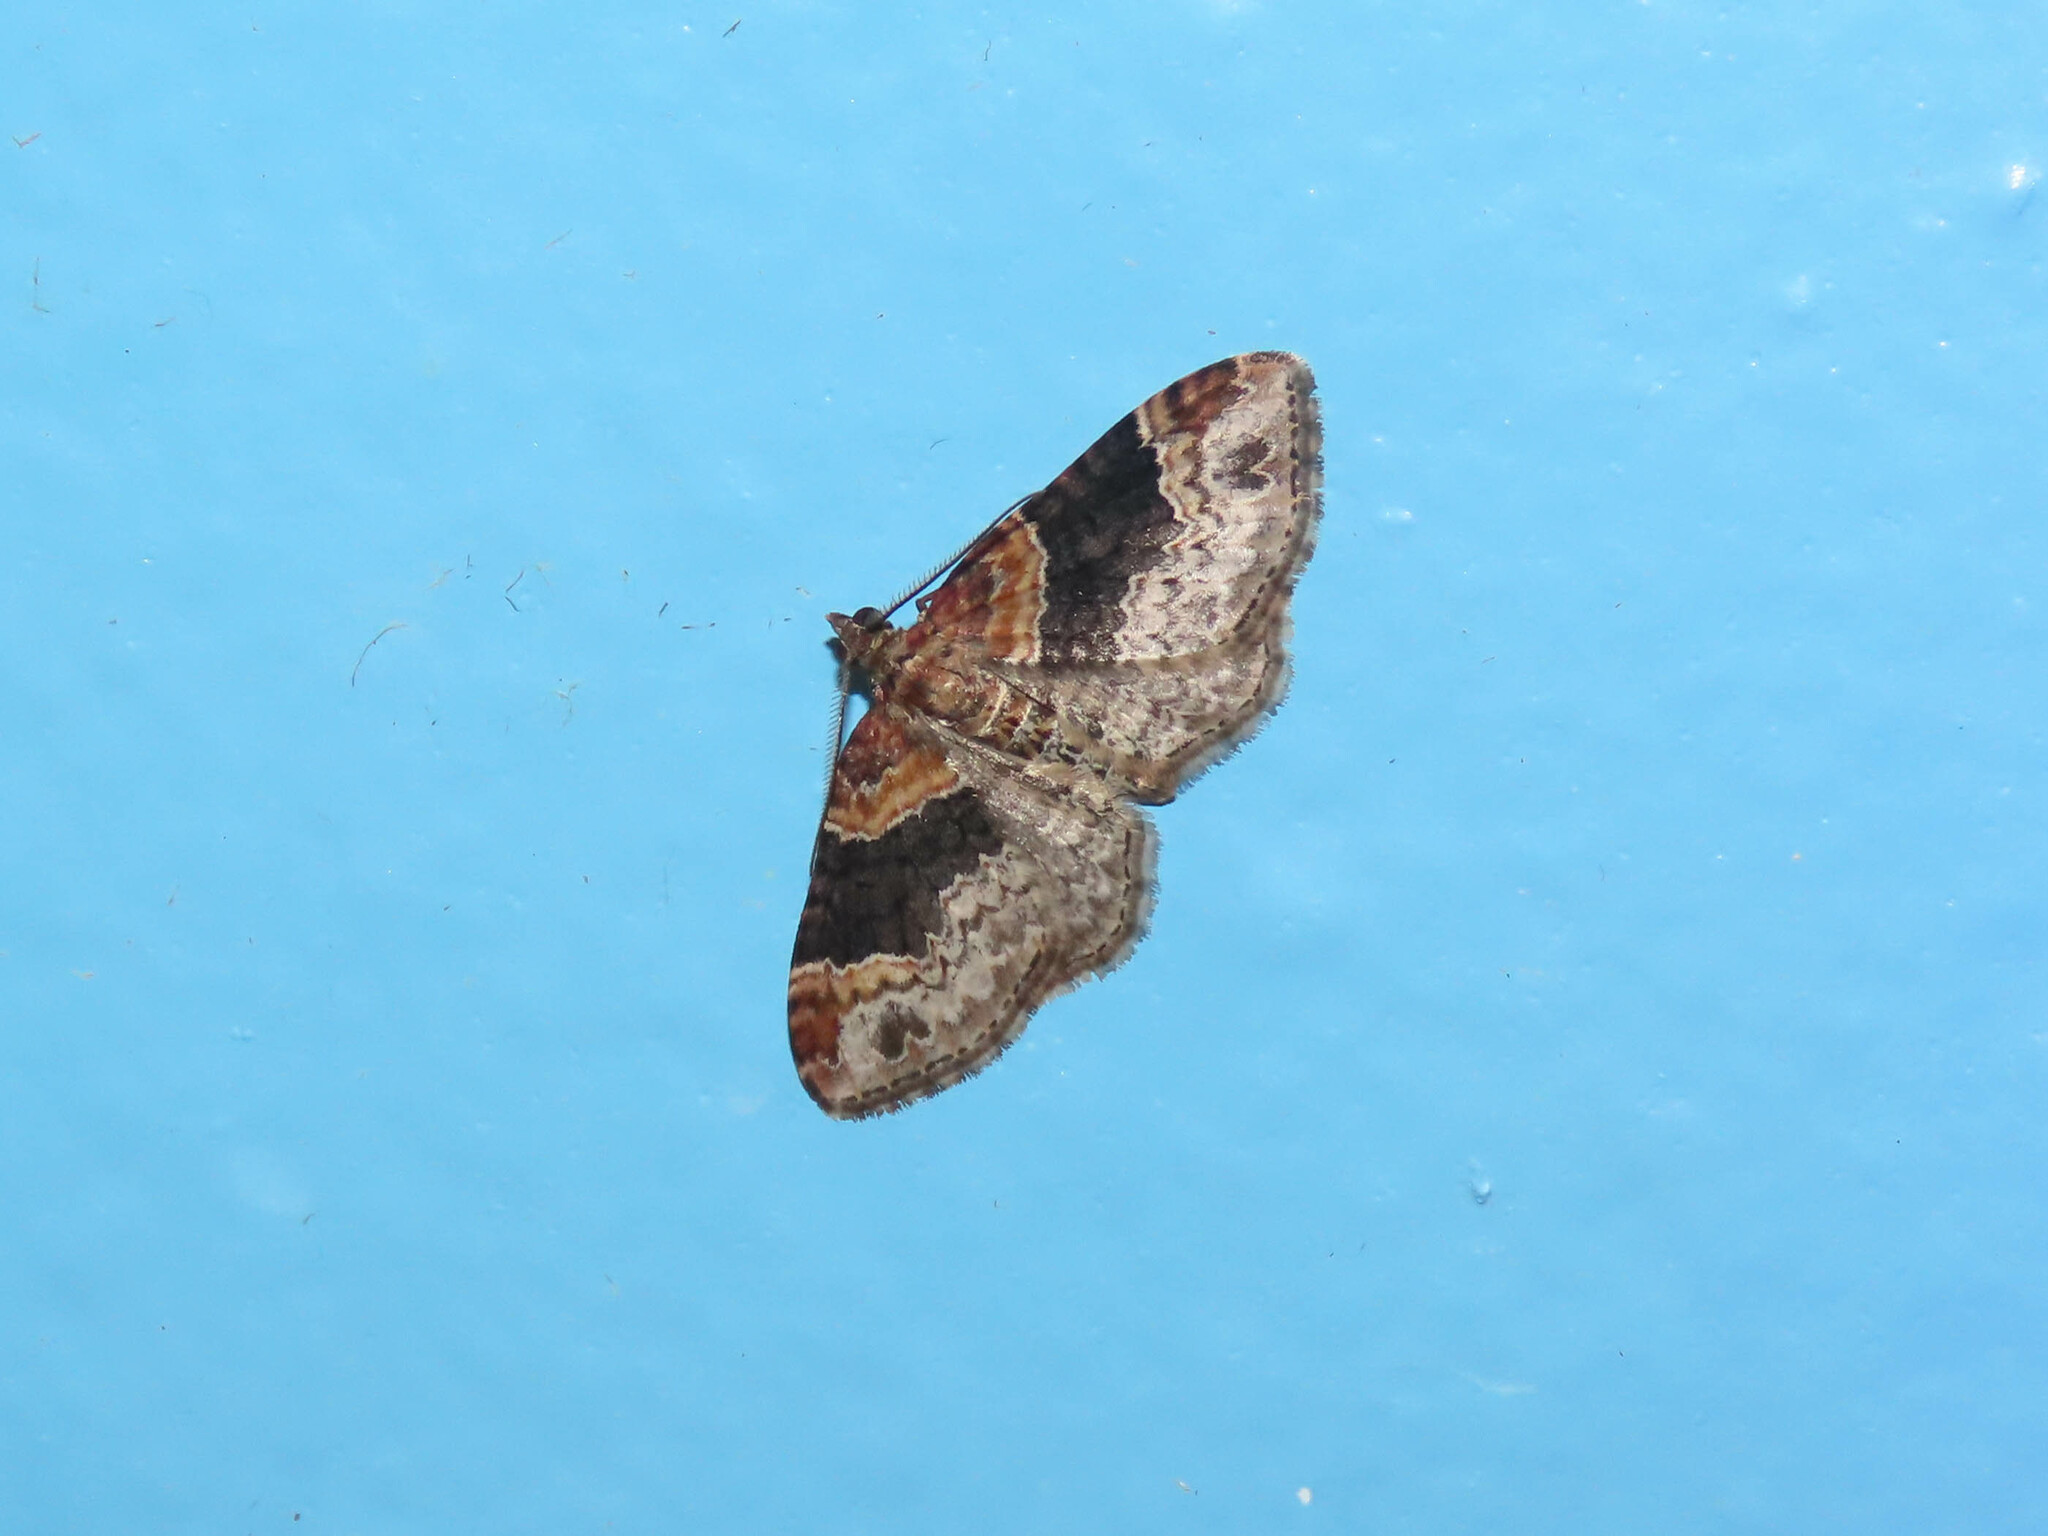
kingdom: Animalia
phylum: Arthropoda
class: Insecta
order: Lepidoptera
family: Geometridae
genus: Xanthorhoe
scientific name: Xanthorhoe ferrugata
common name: Dark-barred twin-spot carpet
